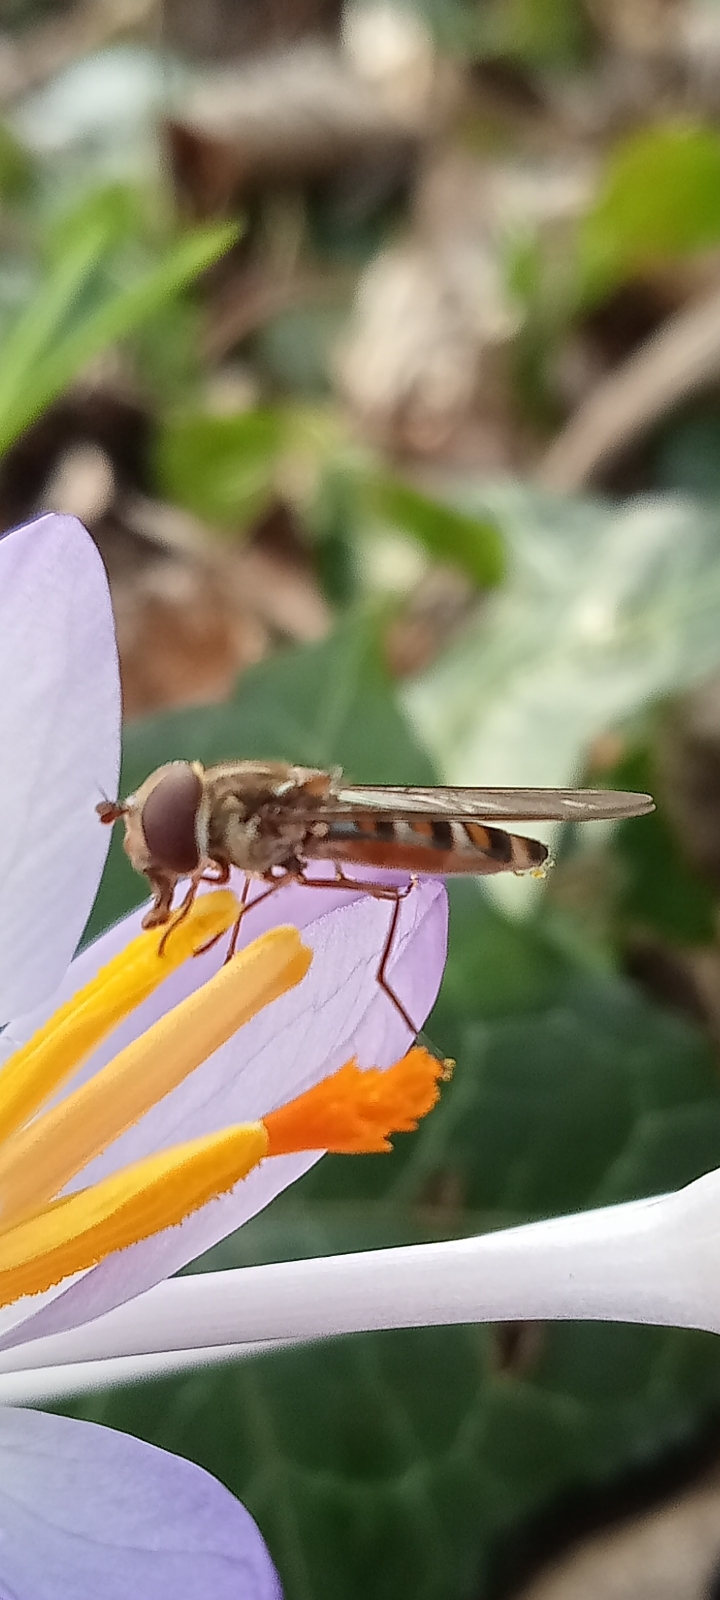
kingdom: Animalia
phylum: Arthropoda
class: Insecta
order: Diptera
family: Syrphidae
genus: Episyrphus
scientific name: Episyrphus balteatus
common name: Marmalade hoverfly
